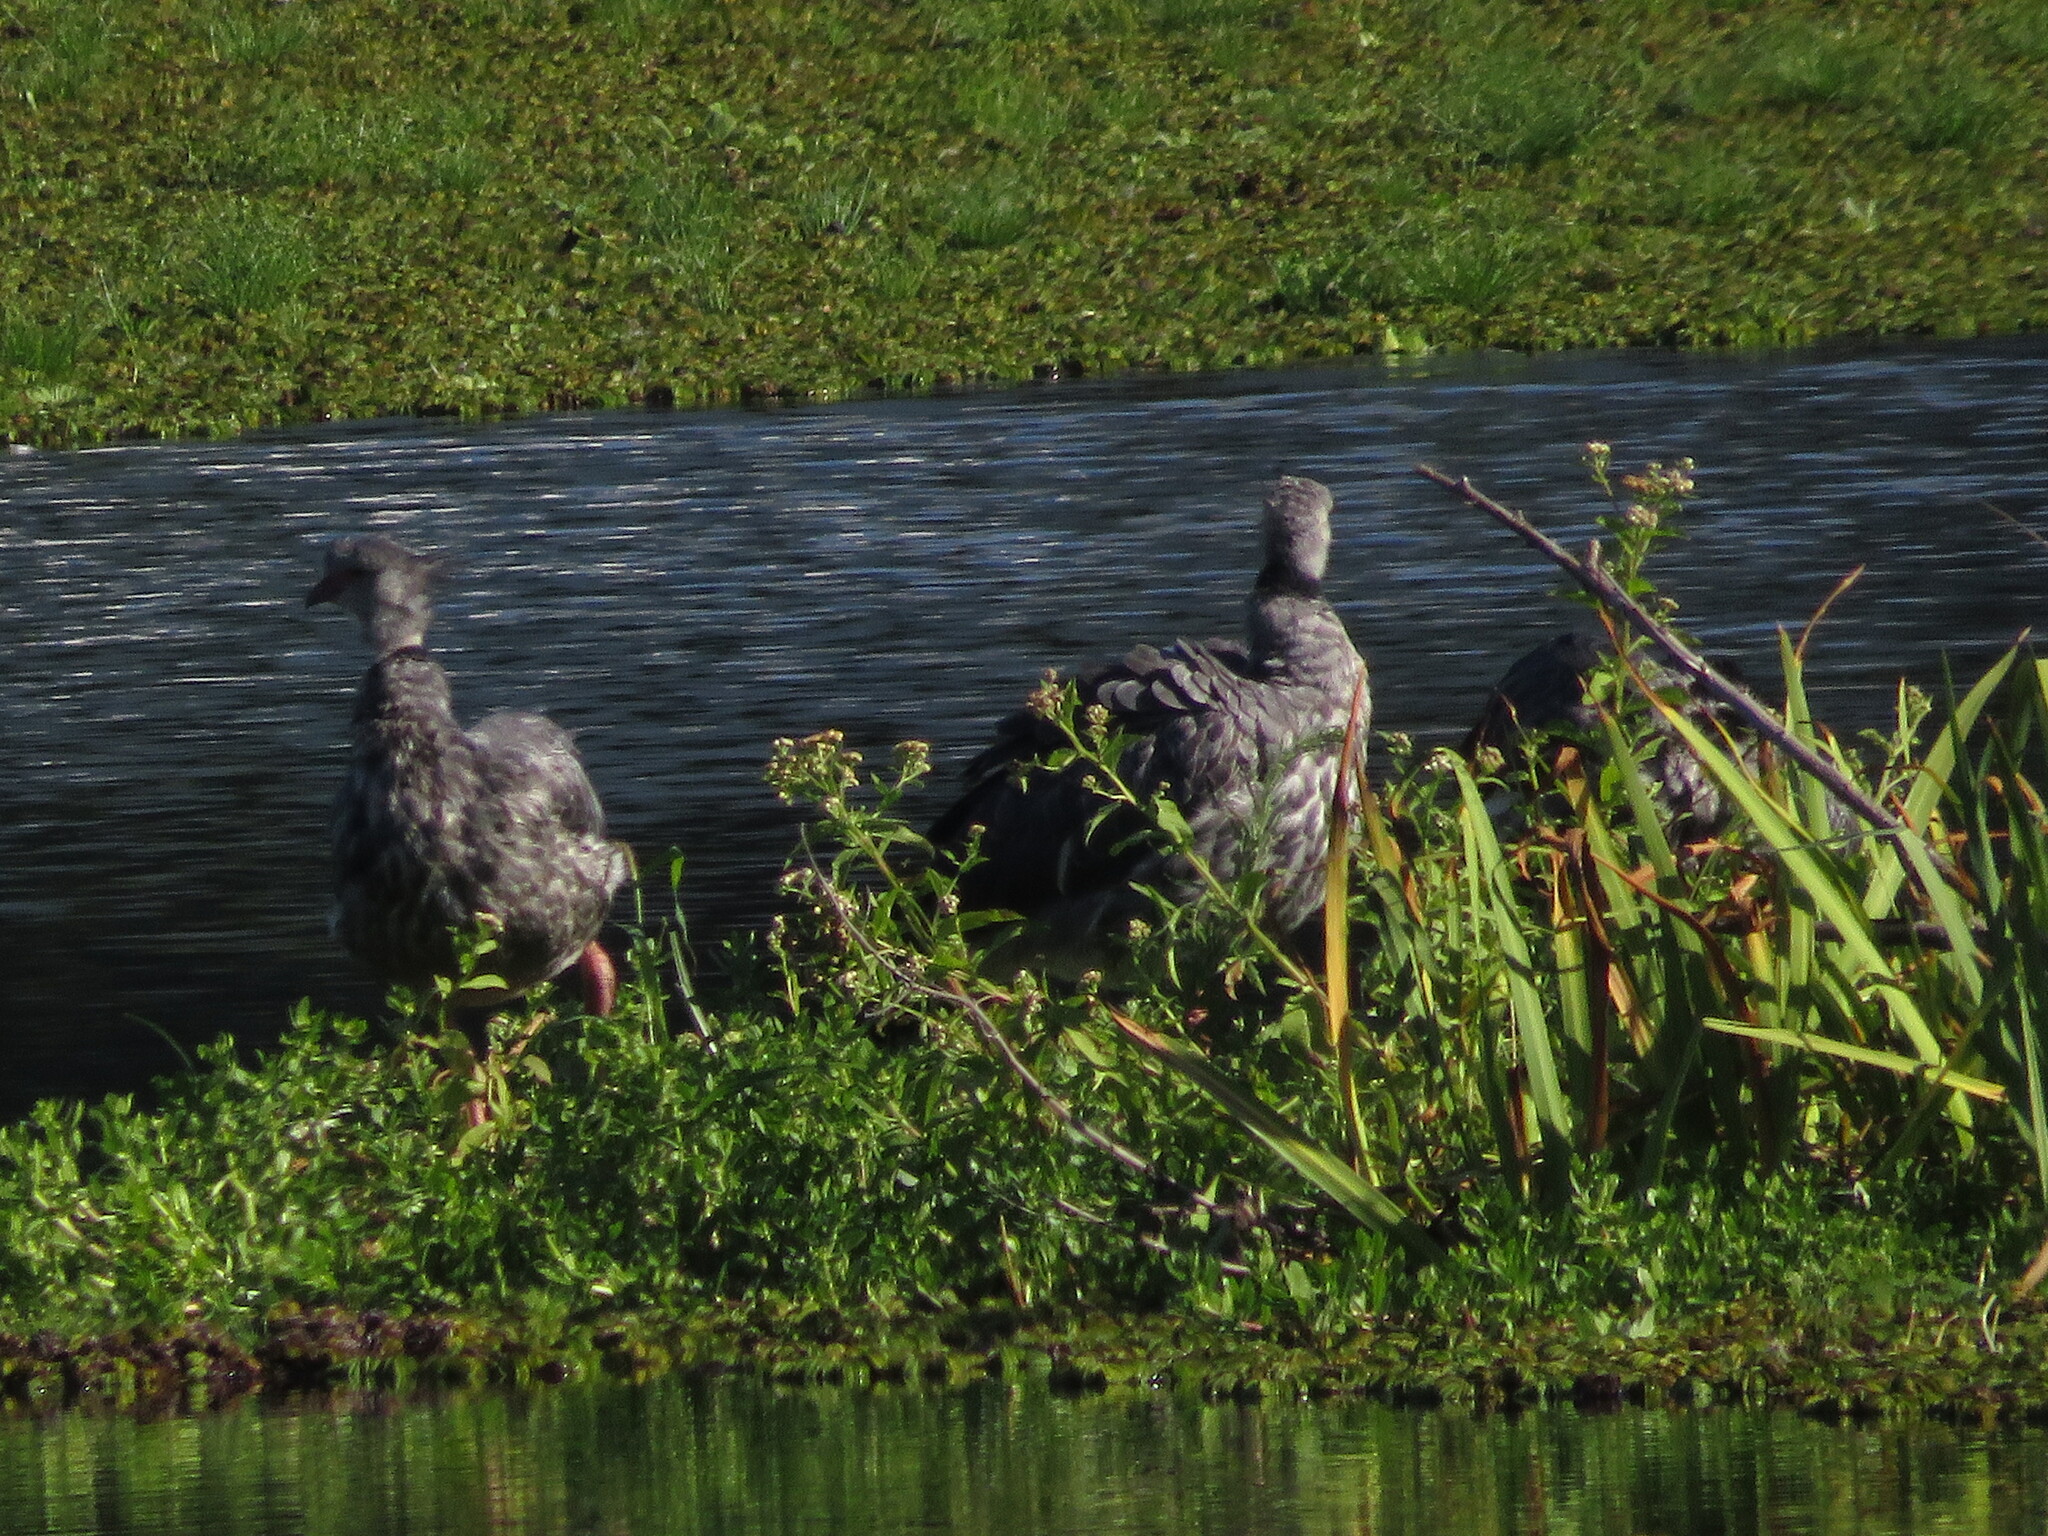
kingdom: Animalia
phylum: Chordata
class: Aves
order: Anseriformes
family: Anhimidae
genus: Chauna
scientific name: Chauna torquata
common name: Southern screamer
